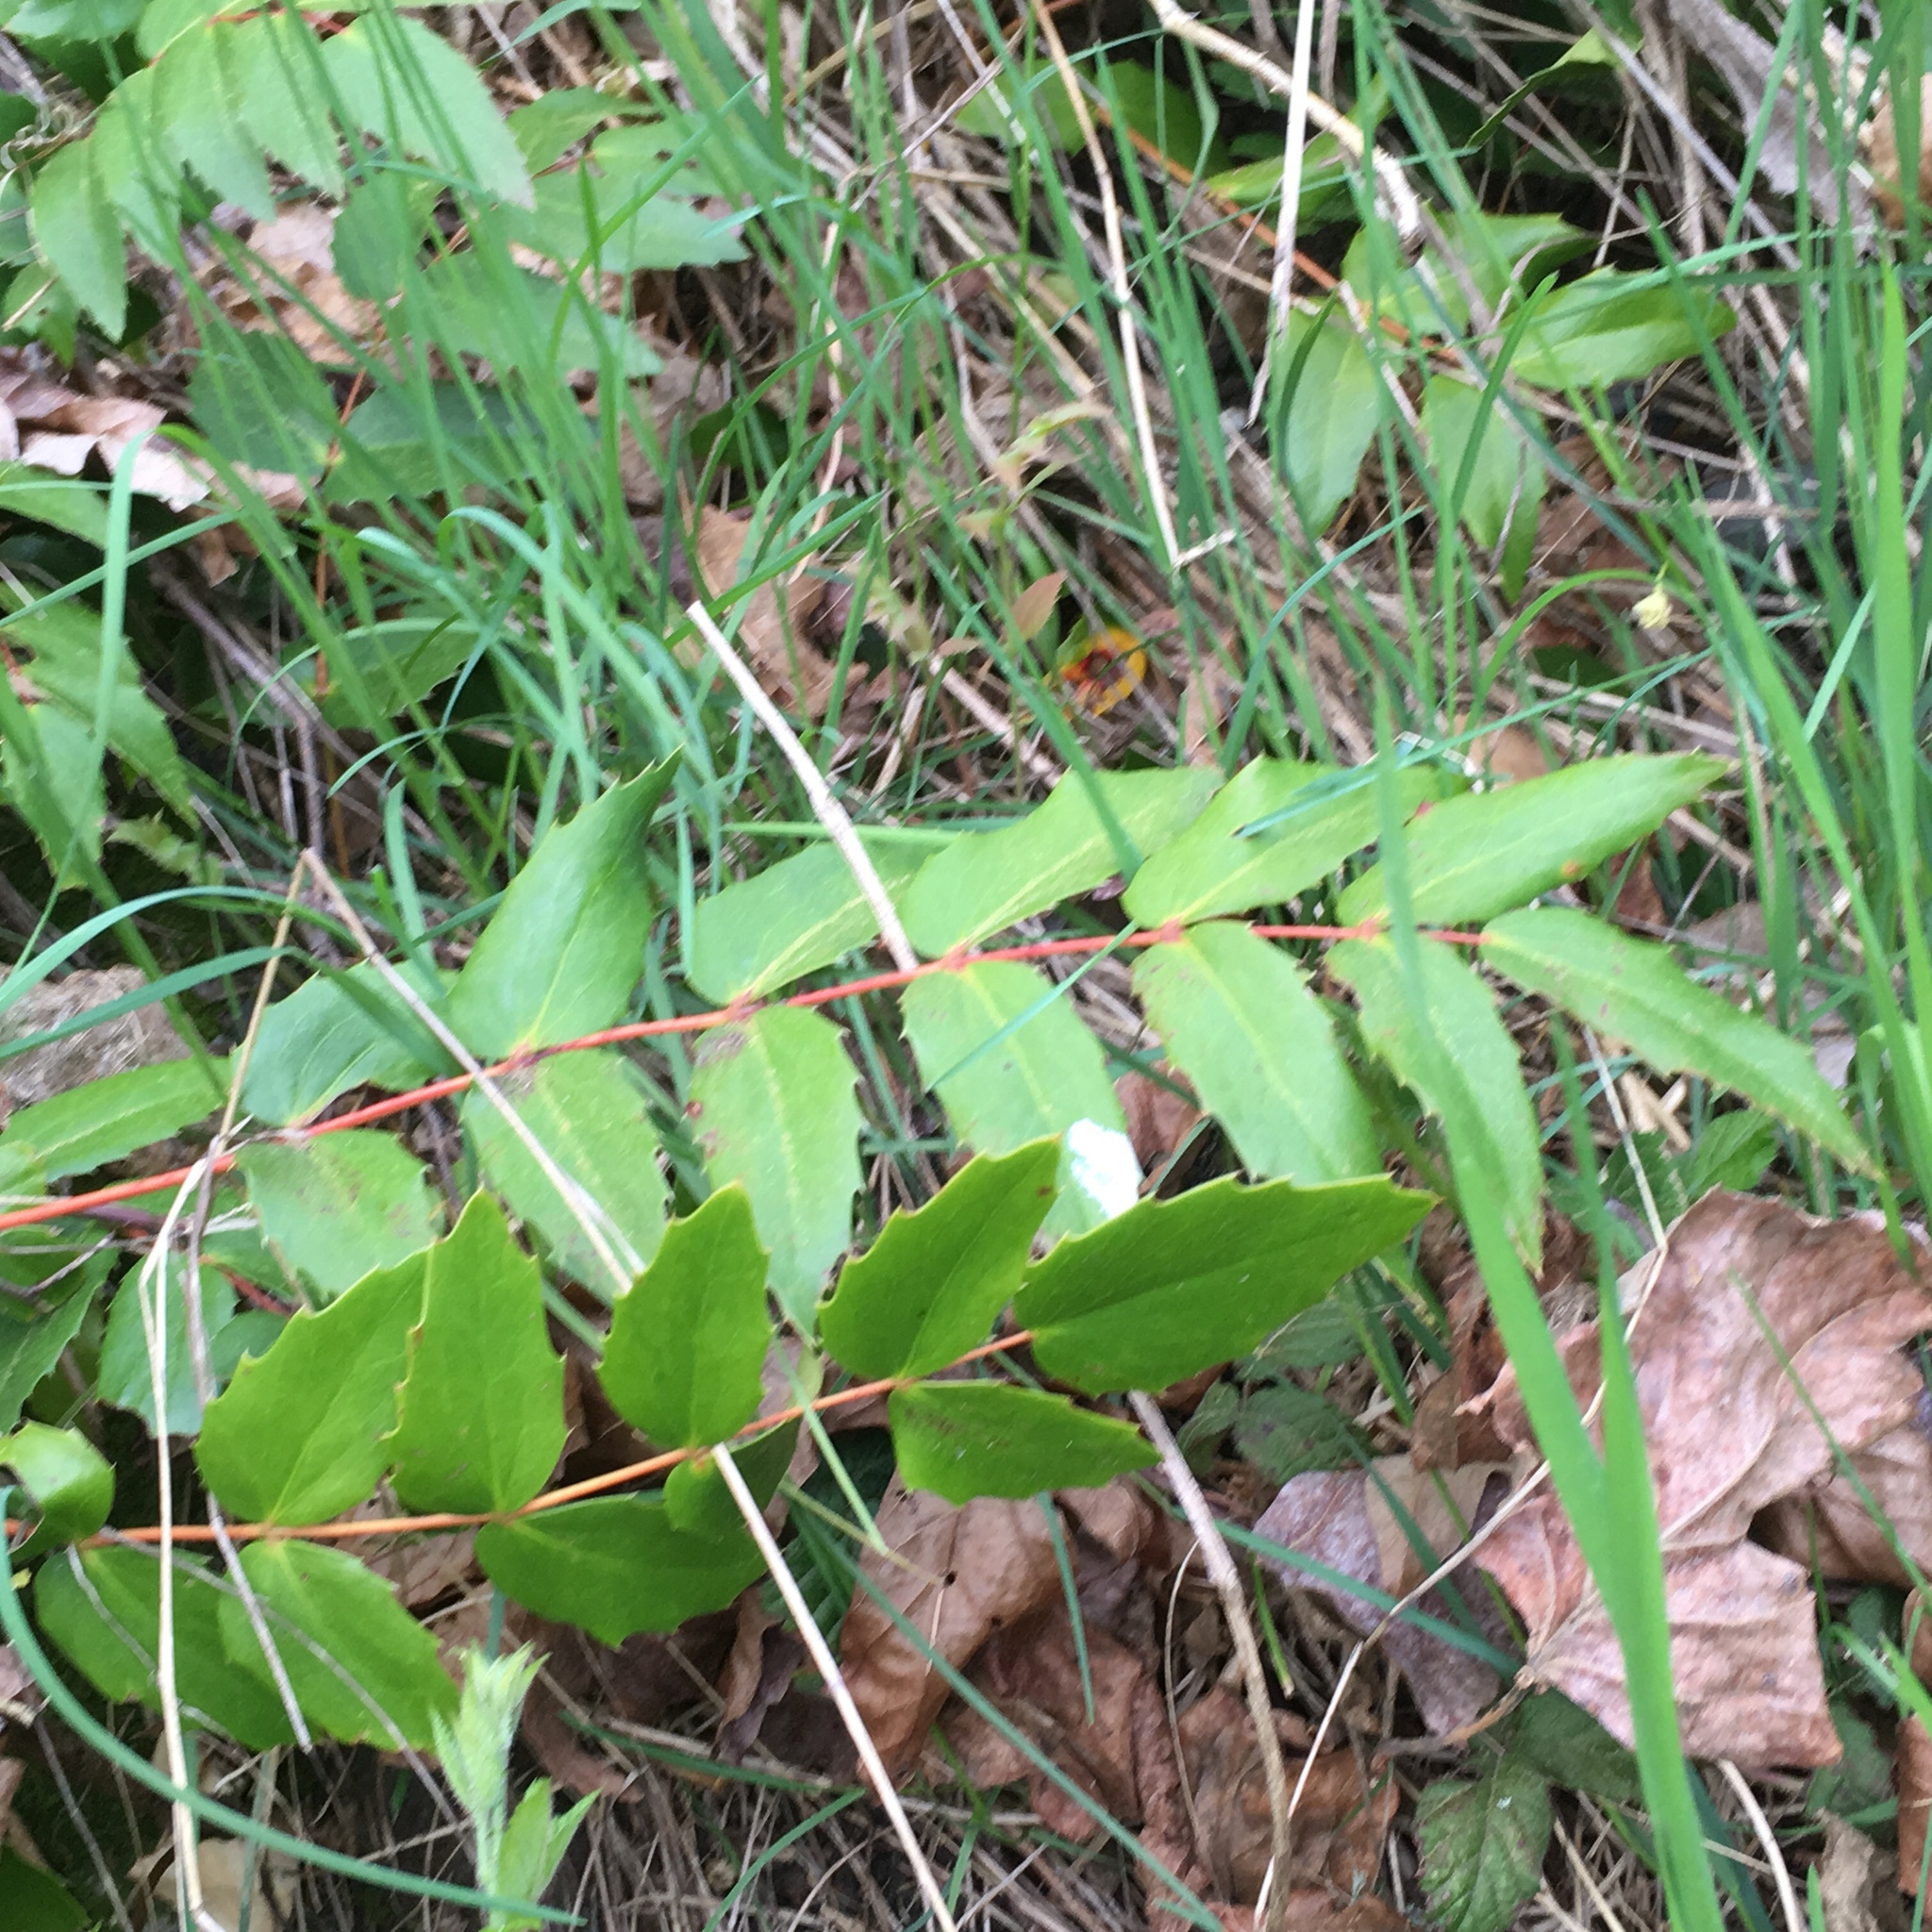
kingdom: Plantae
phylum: Tracheophyta
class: Magnoliopsida
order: Ranunculales
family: Berberidaceae
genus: Mahonia
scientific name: Mahonia nervosa
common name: Cascade oregon-grape
